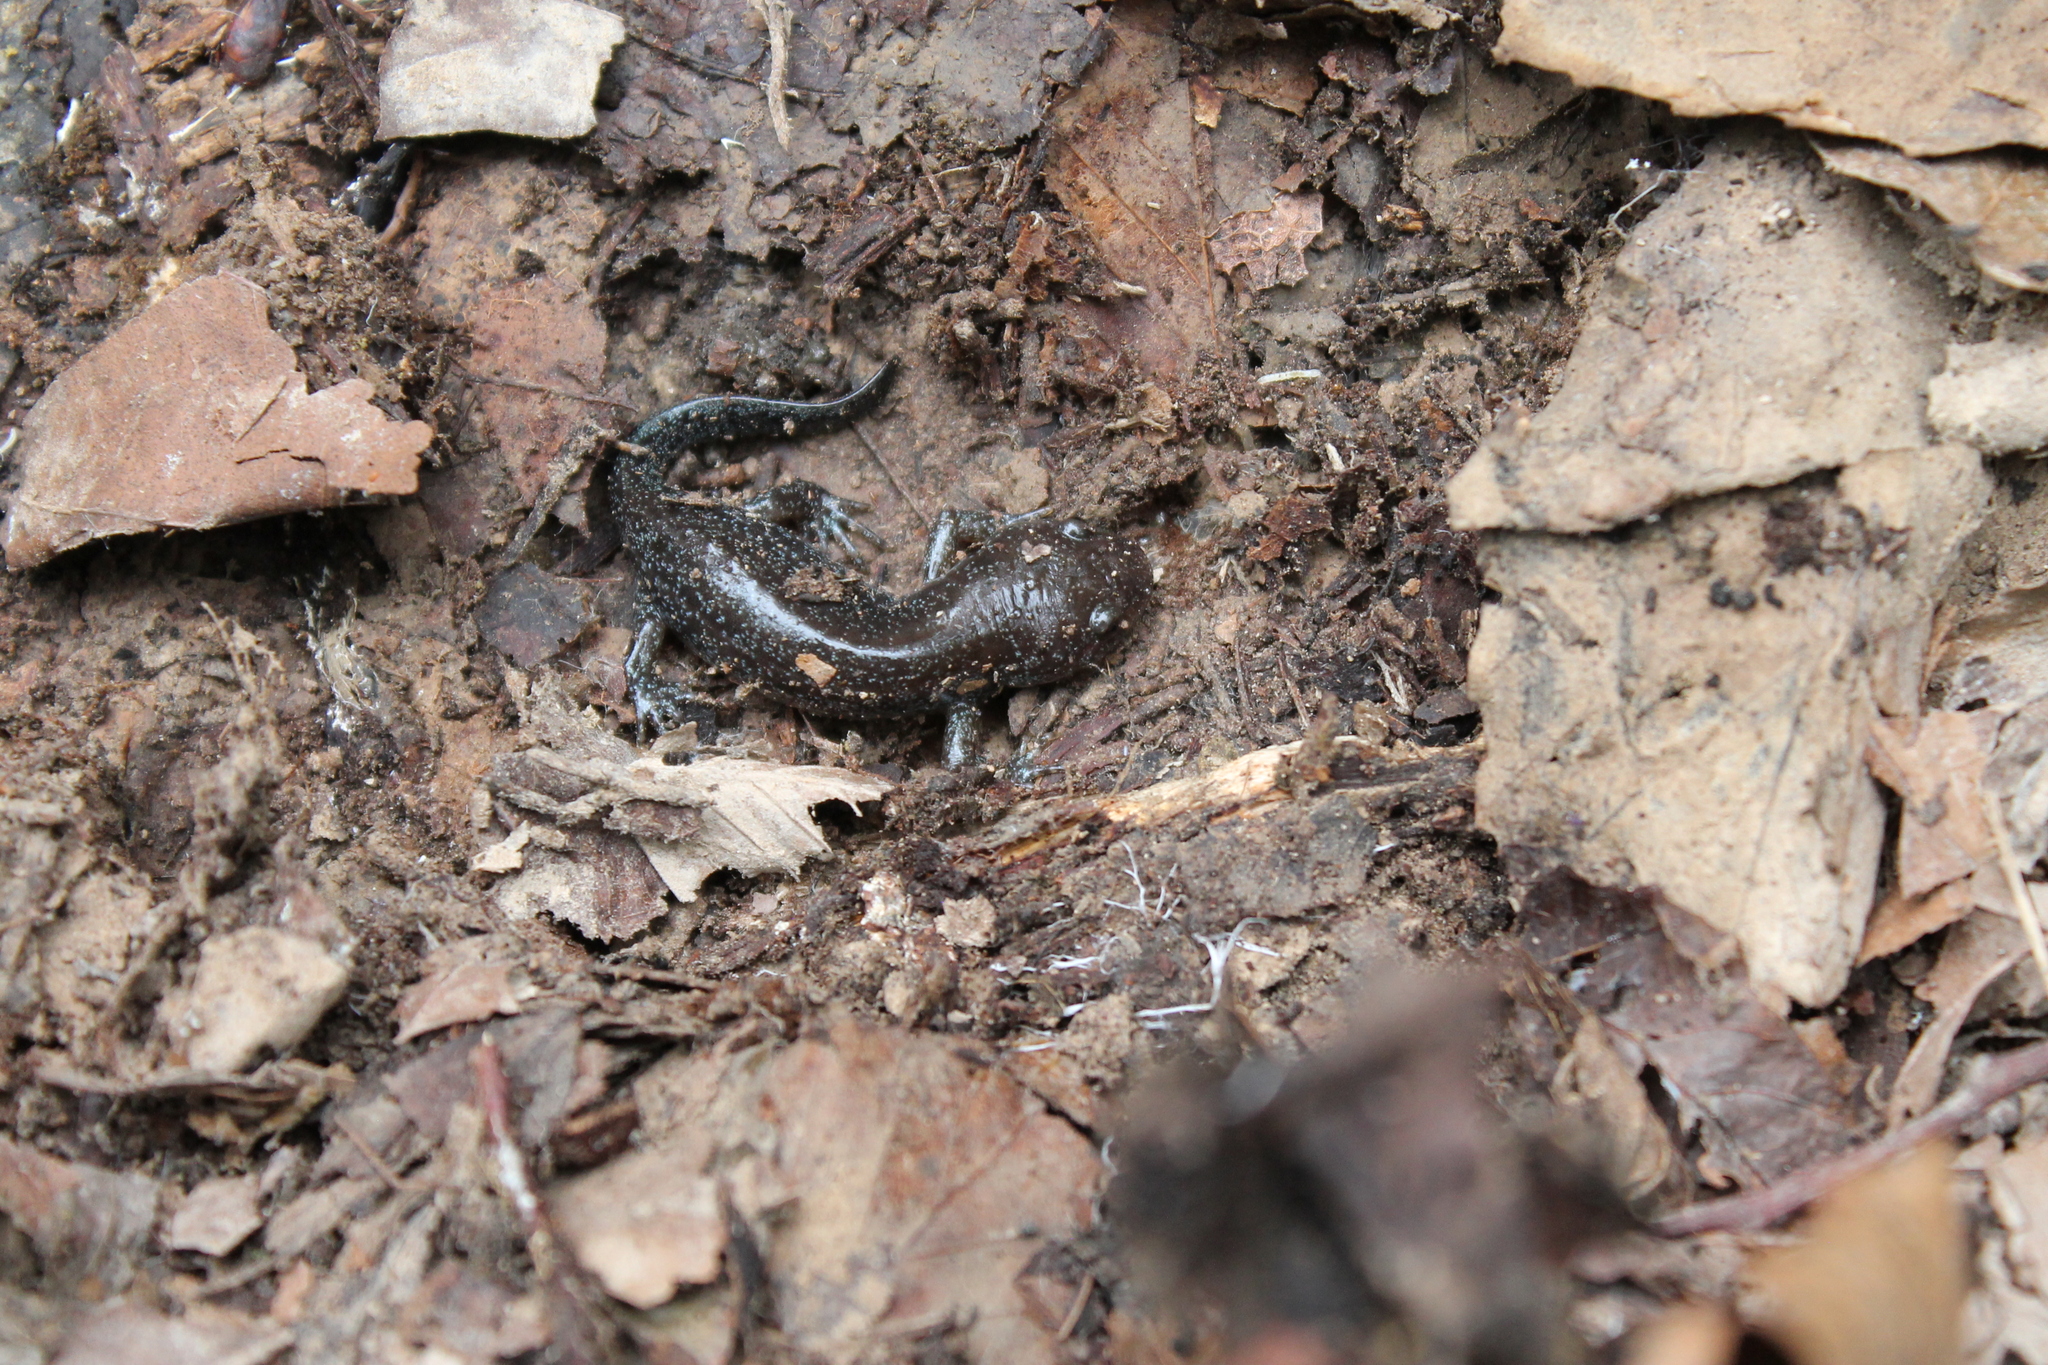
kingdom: Animalia
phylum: Chordata
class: Amphibia
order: Caudata
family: Ambystomatidae
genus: Ambystoma
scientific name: Ambystoma talpoideum
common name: Mole salamander
